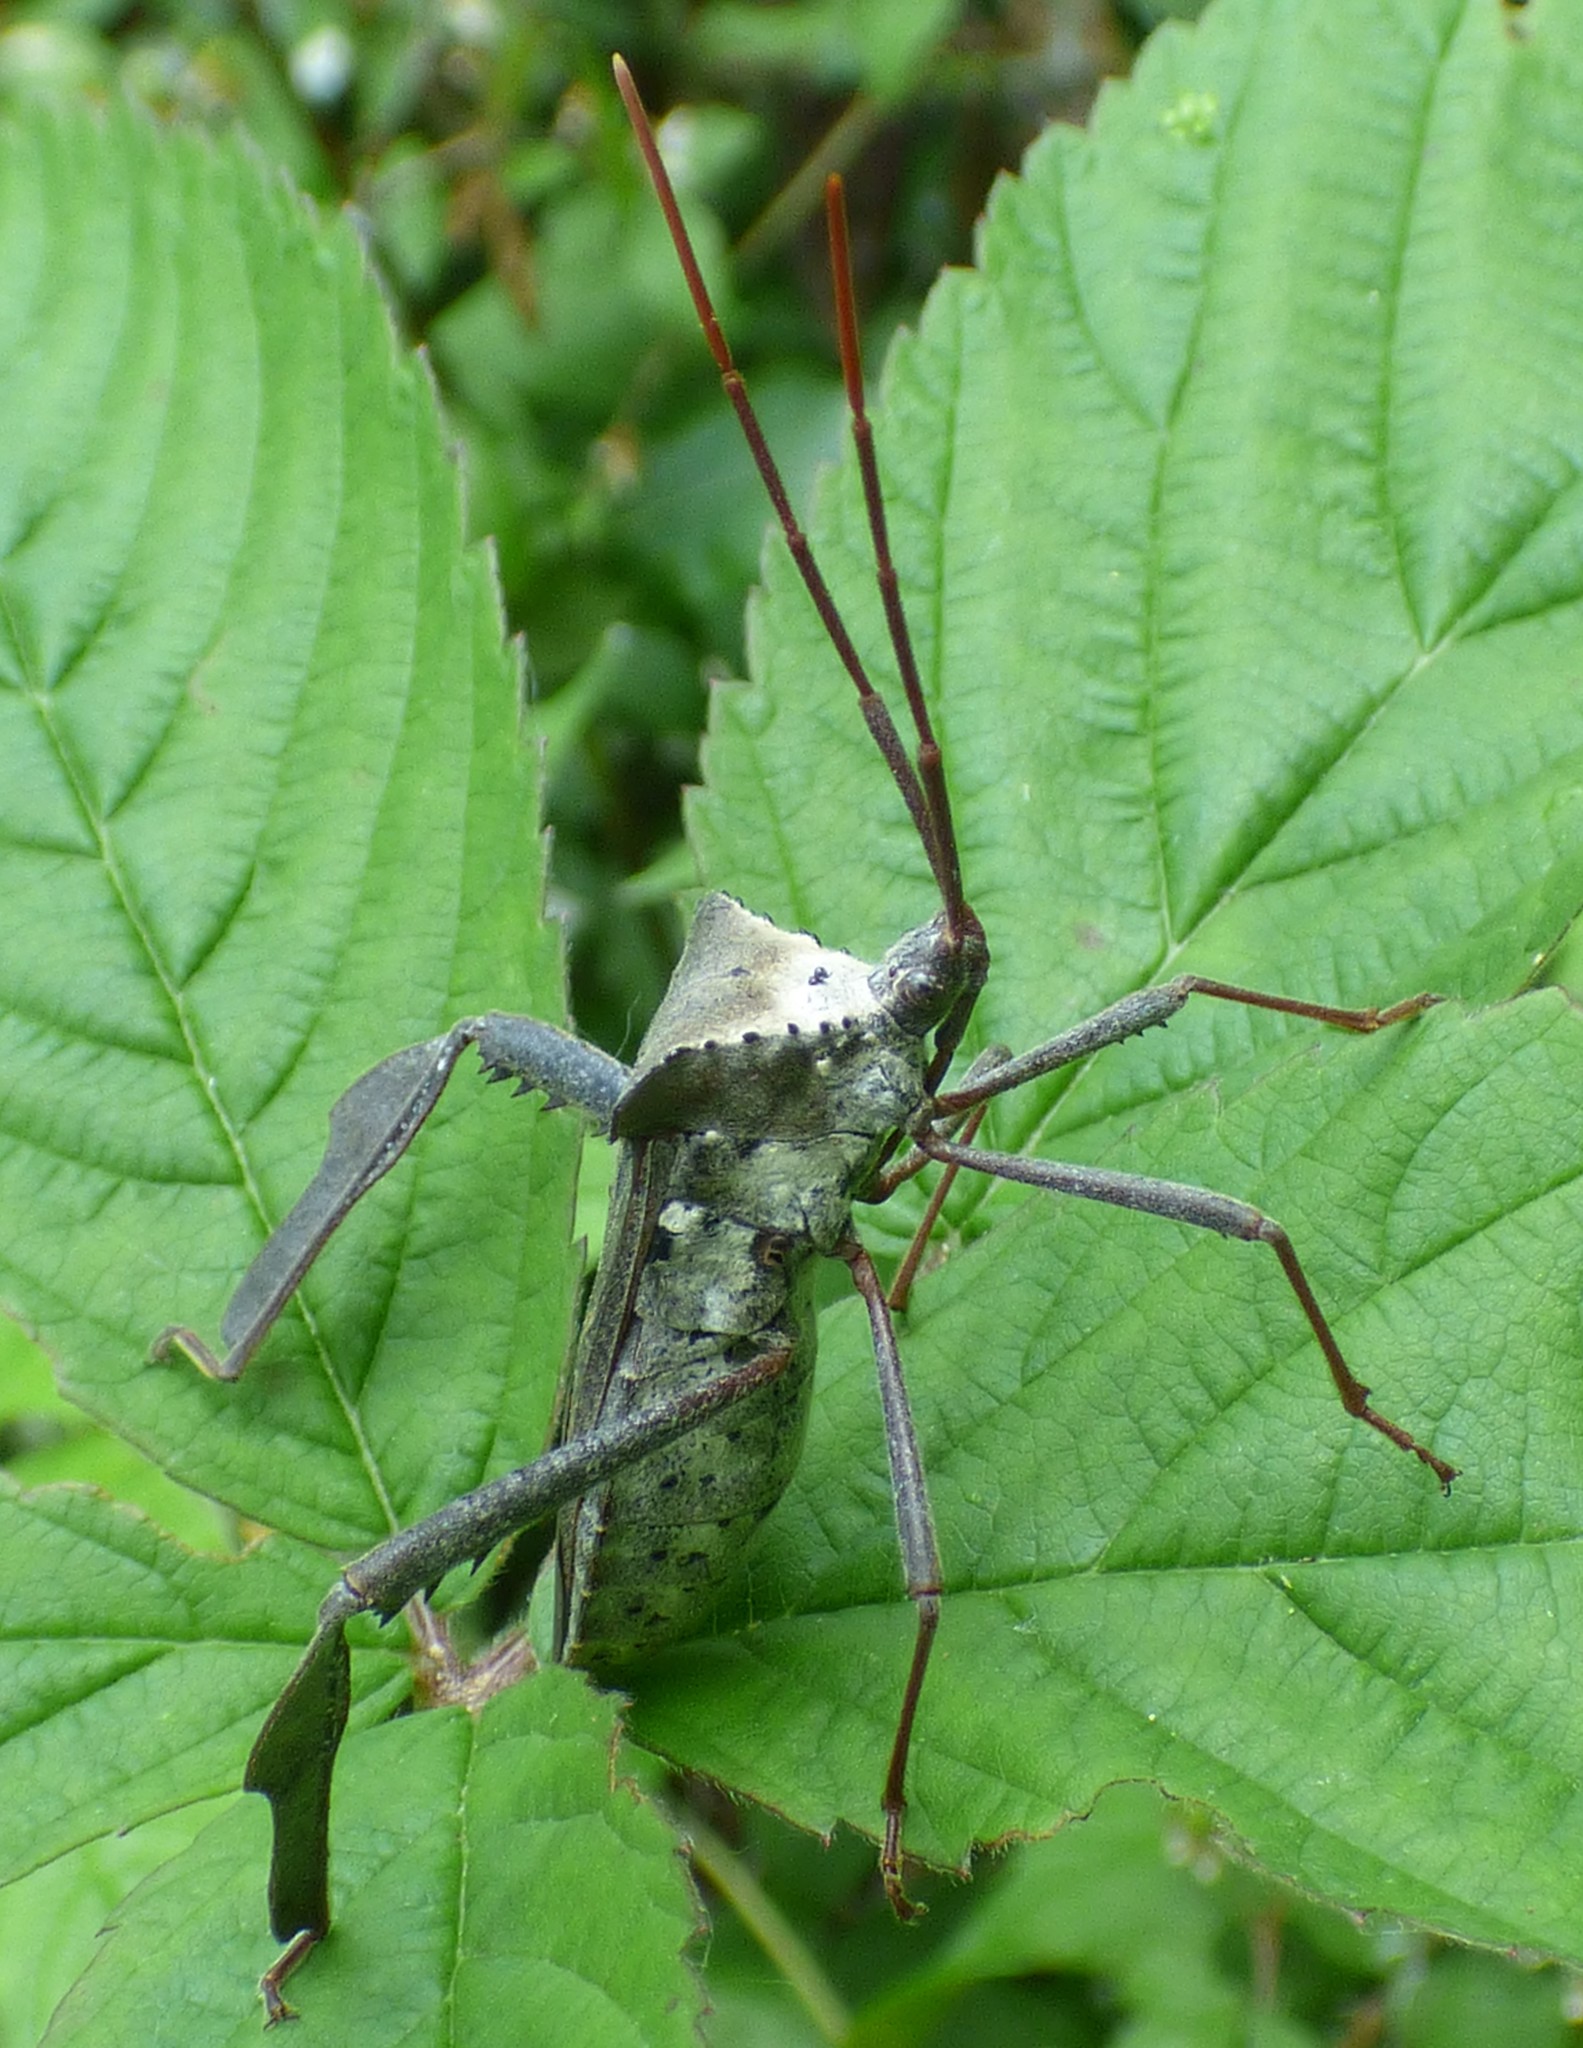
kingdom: Animalia
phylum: Arthropoda
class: Insecta
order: Hemiptera
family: Coreidae
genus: Acanthocephala
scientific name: Acanthocephala declivis
